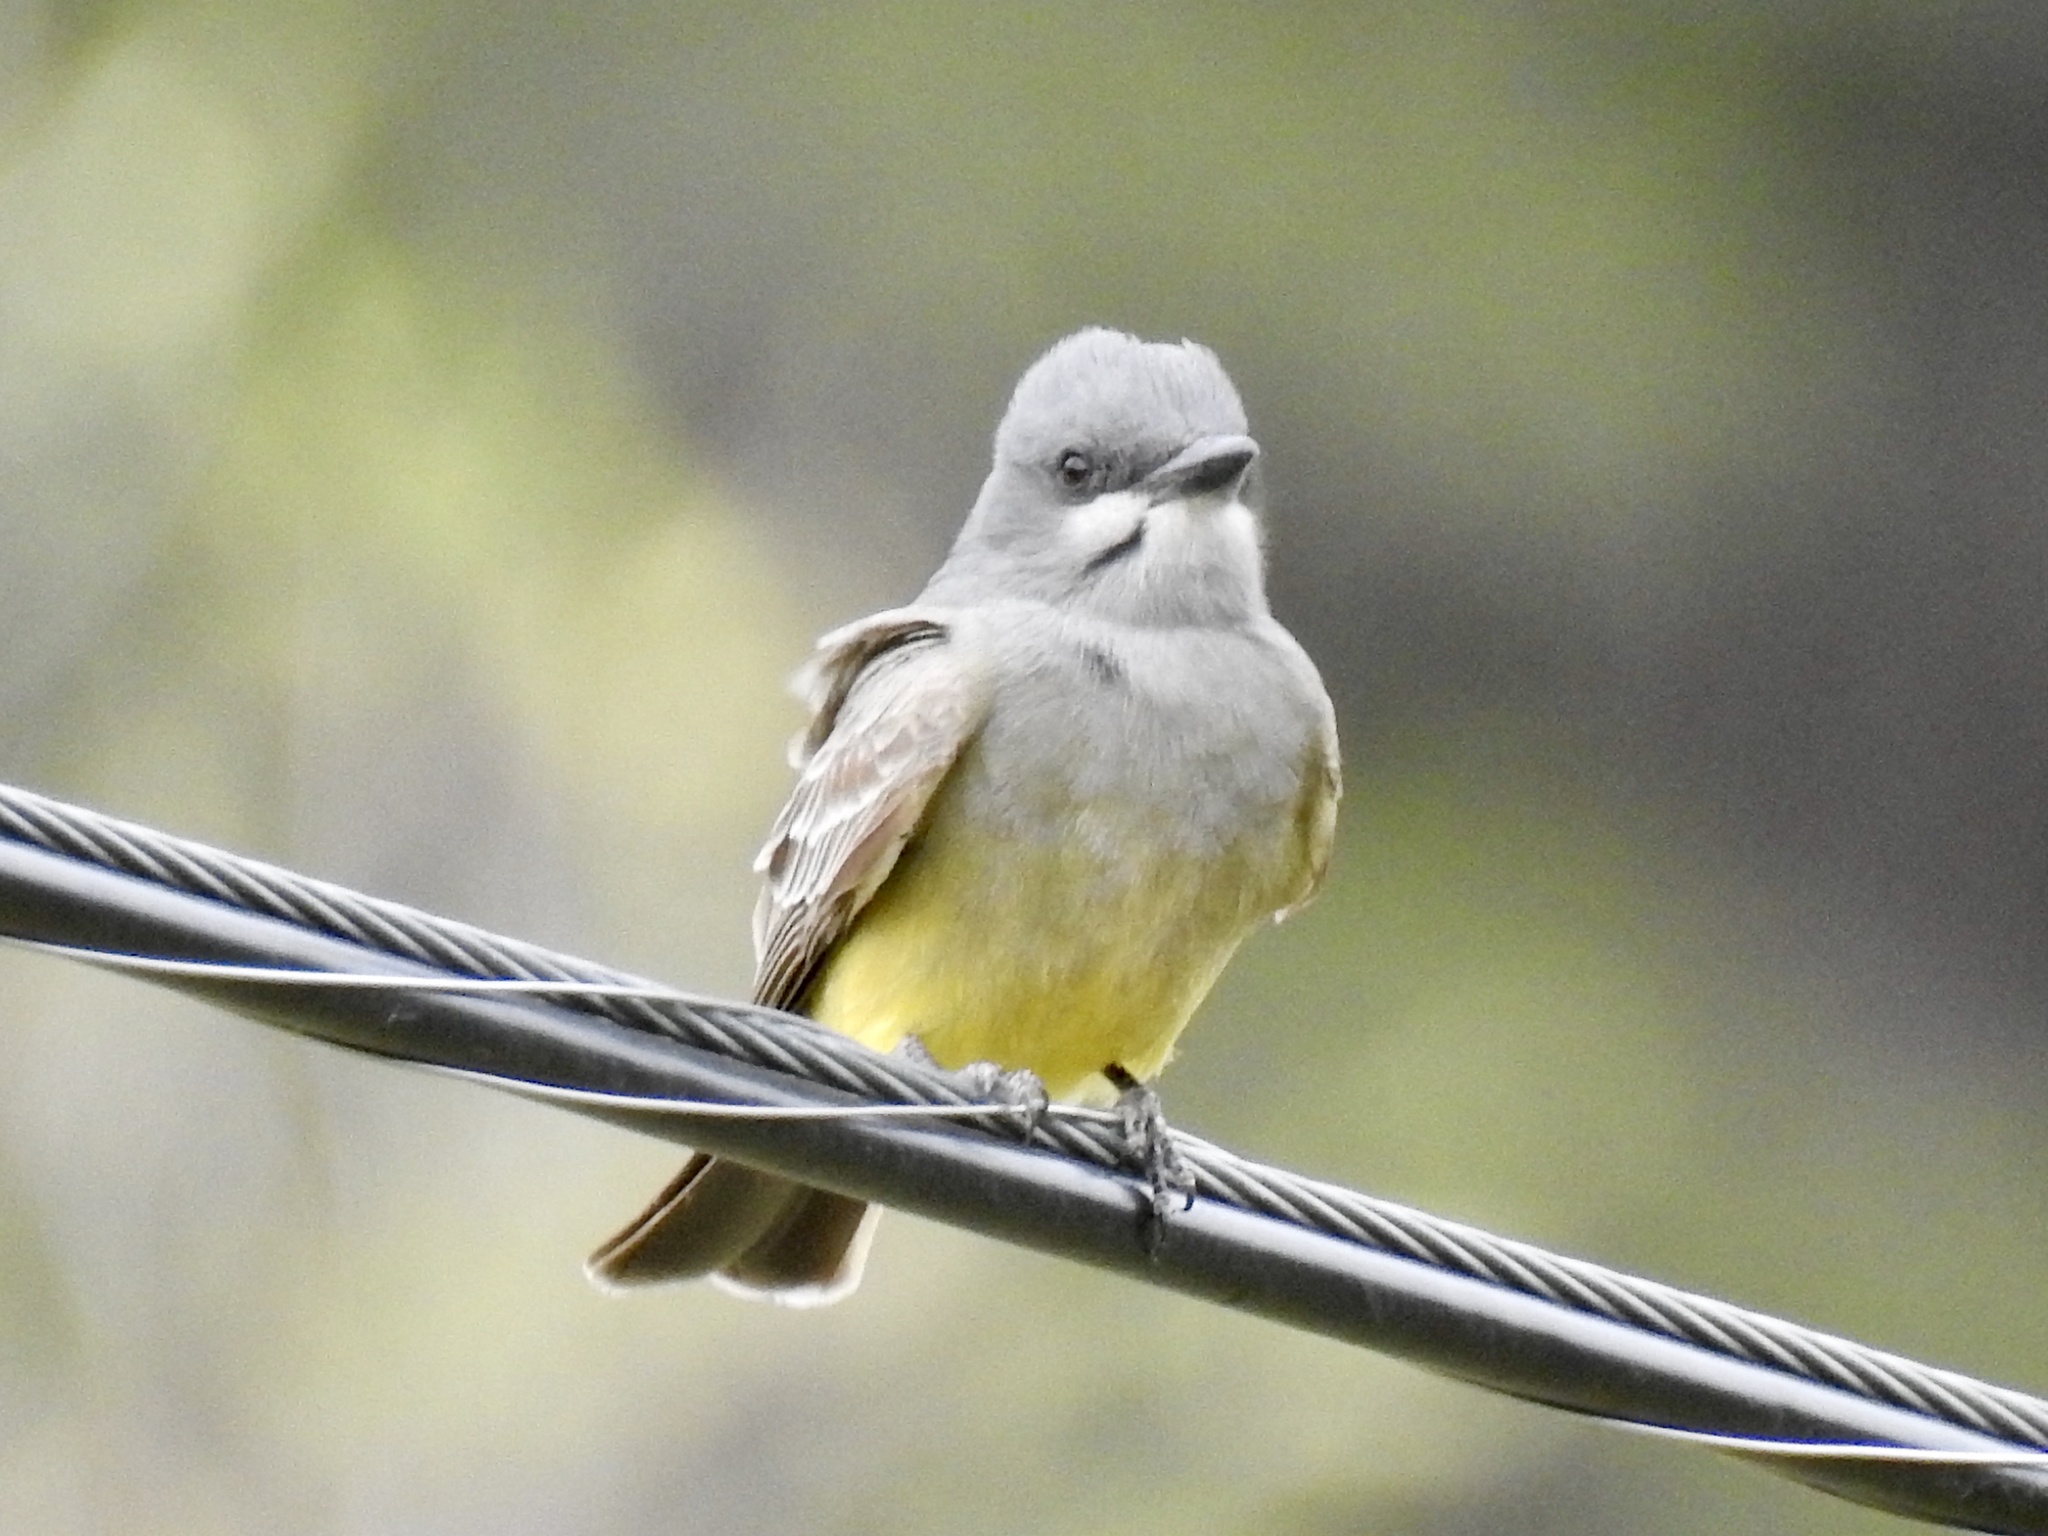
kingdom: Animalia
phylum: Chordata
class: Aves
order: Passeriformes
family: Tyrannidae
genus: Tyrannus
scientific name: Tyrannus vociferans
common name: Cassin's kingbird
